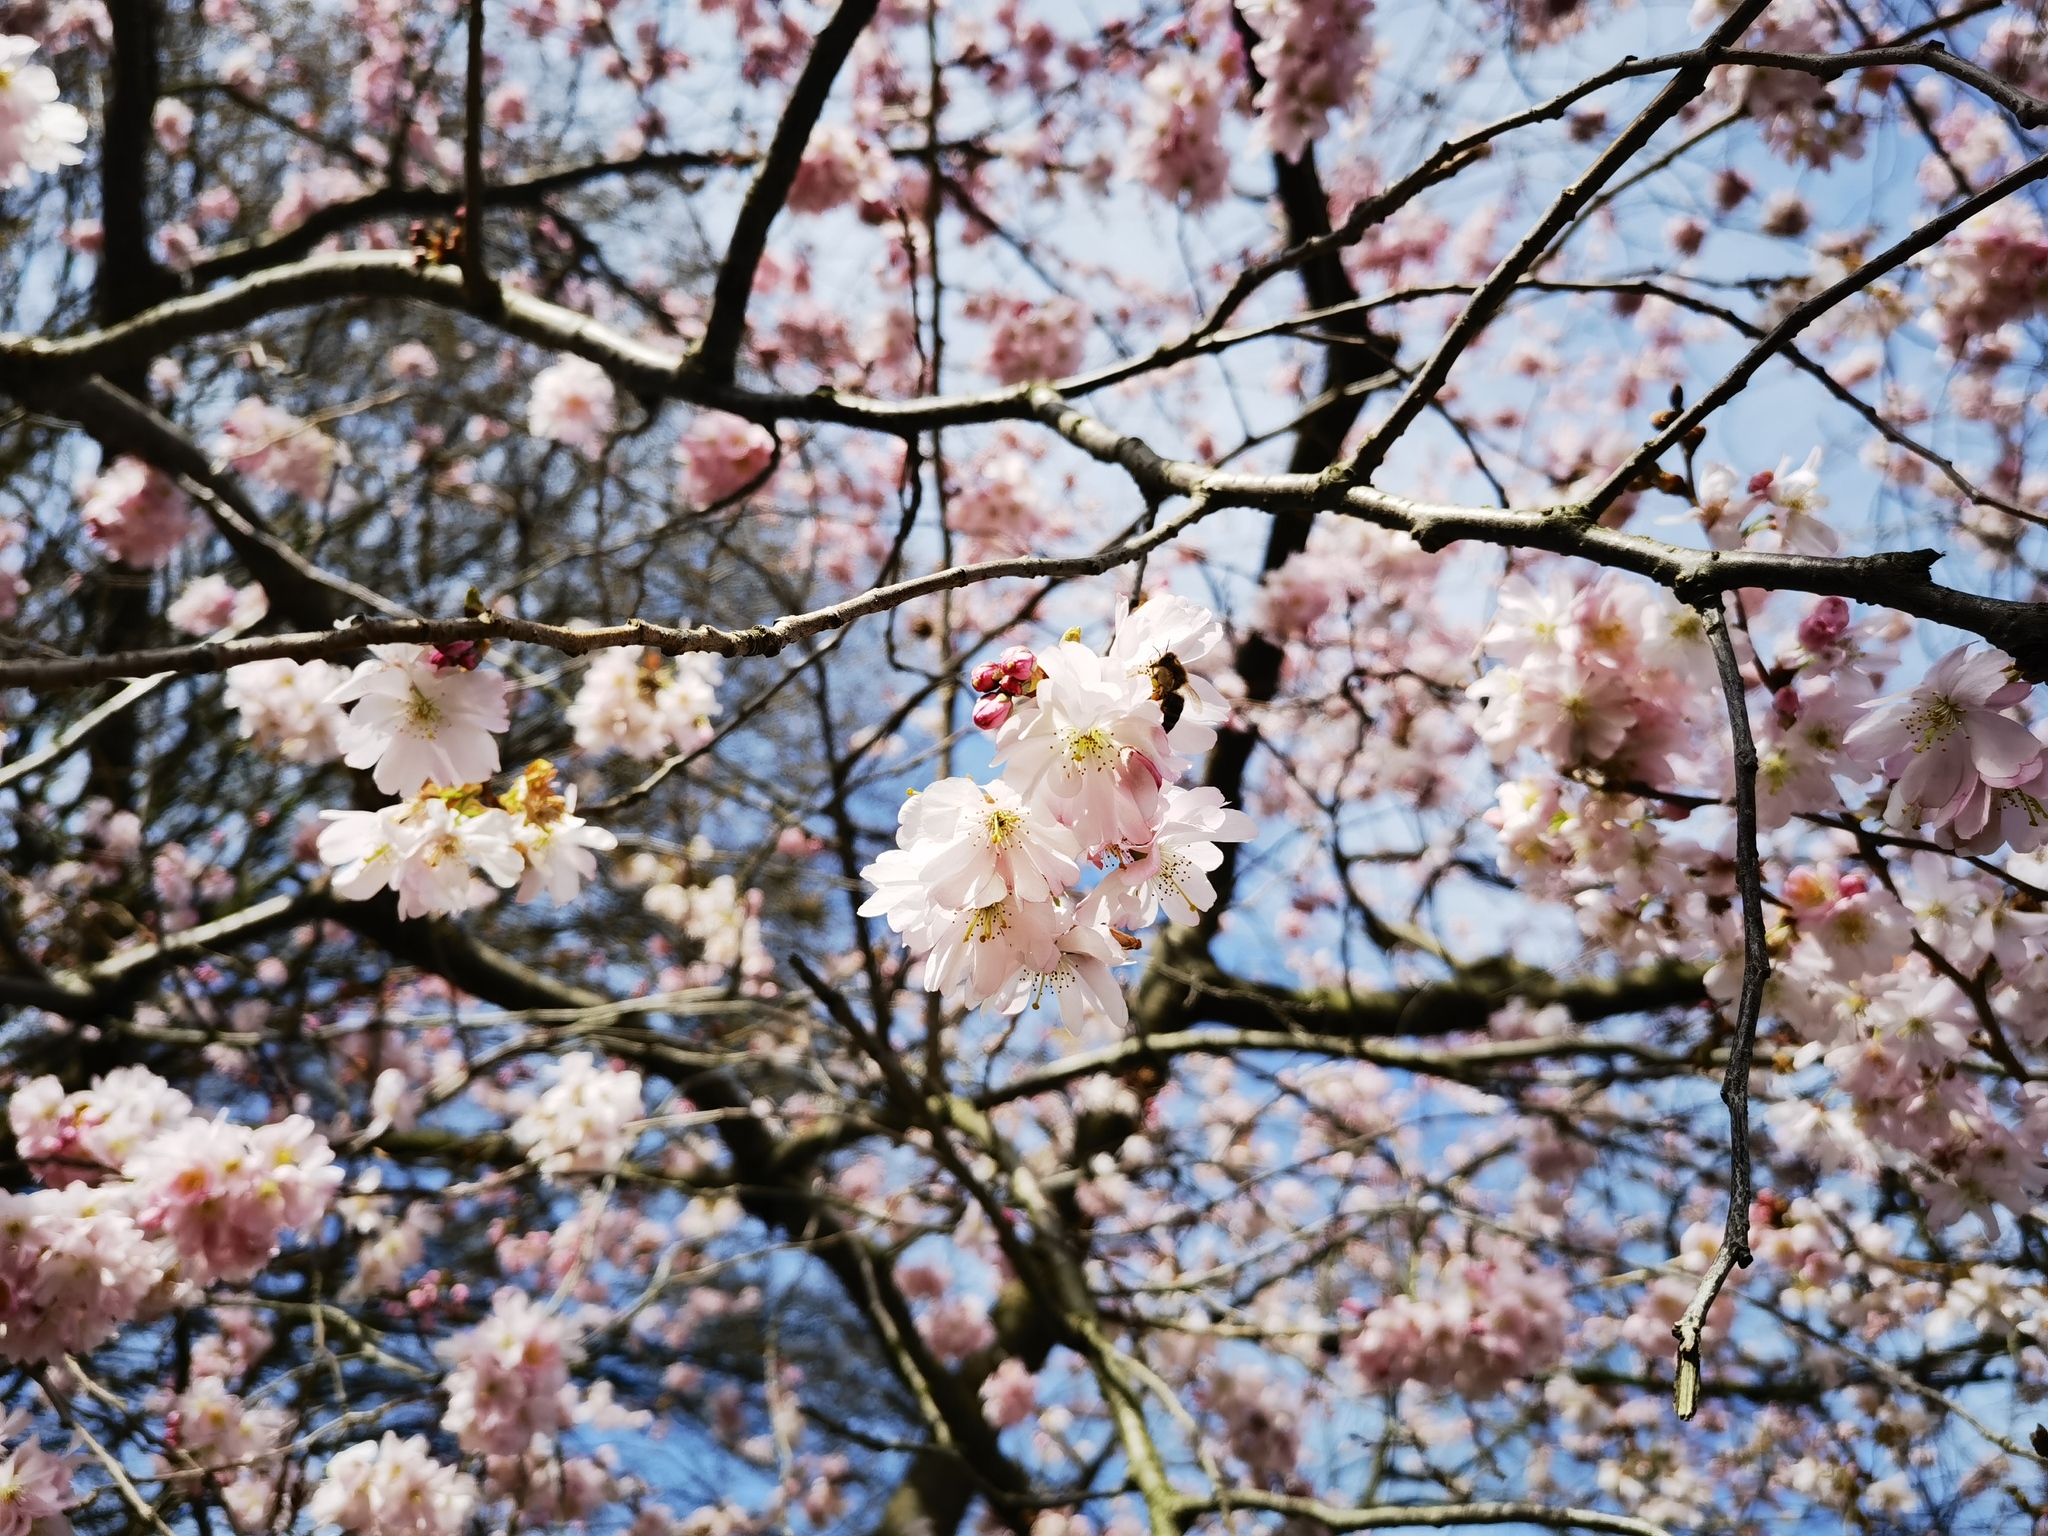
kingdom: Animalia
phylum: Arthropoda
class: Insecta
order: Hymenoptera
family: Apidae
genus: Apis
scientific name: Apis mellifera
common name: Honey bee
